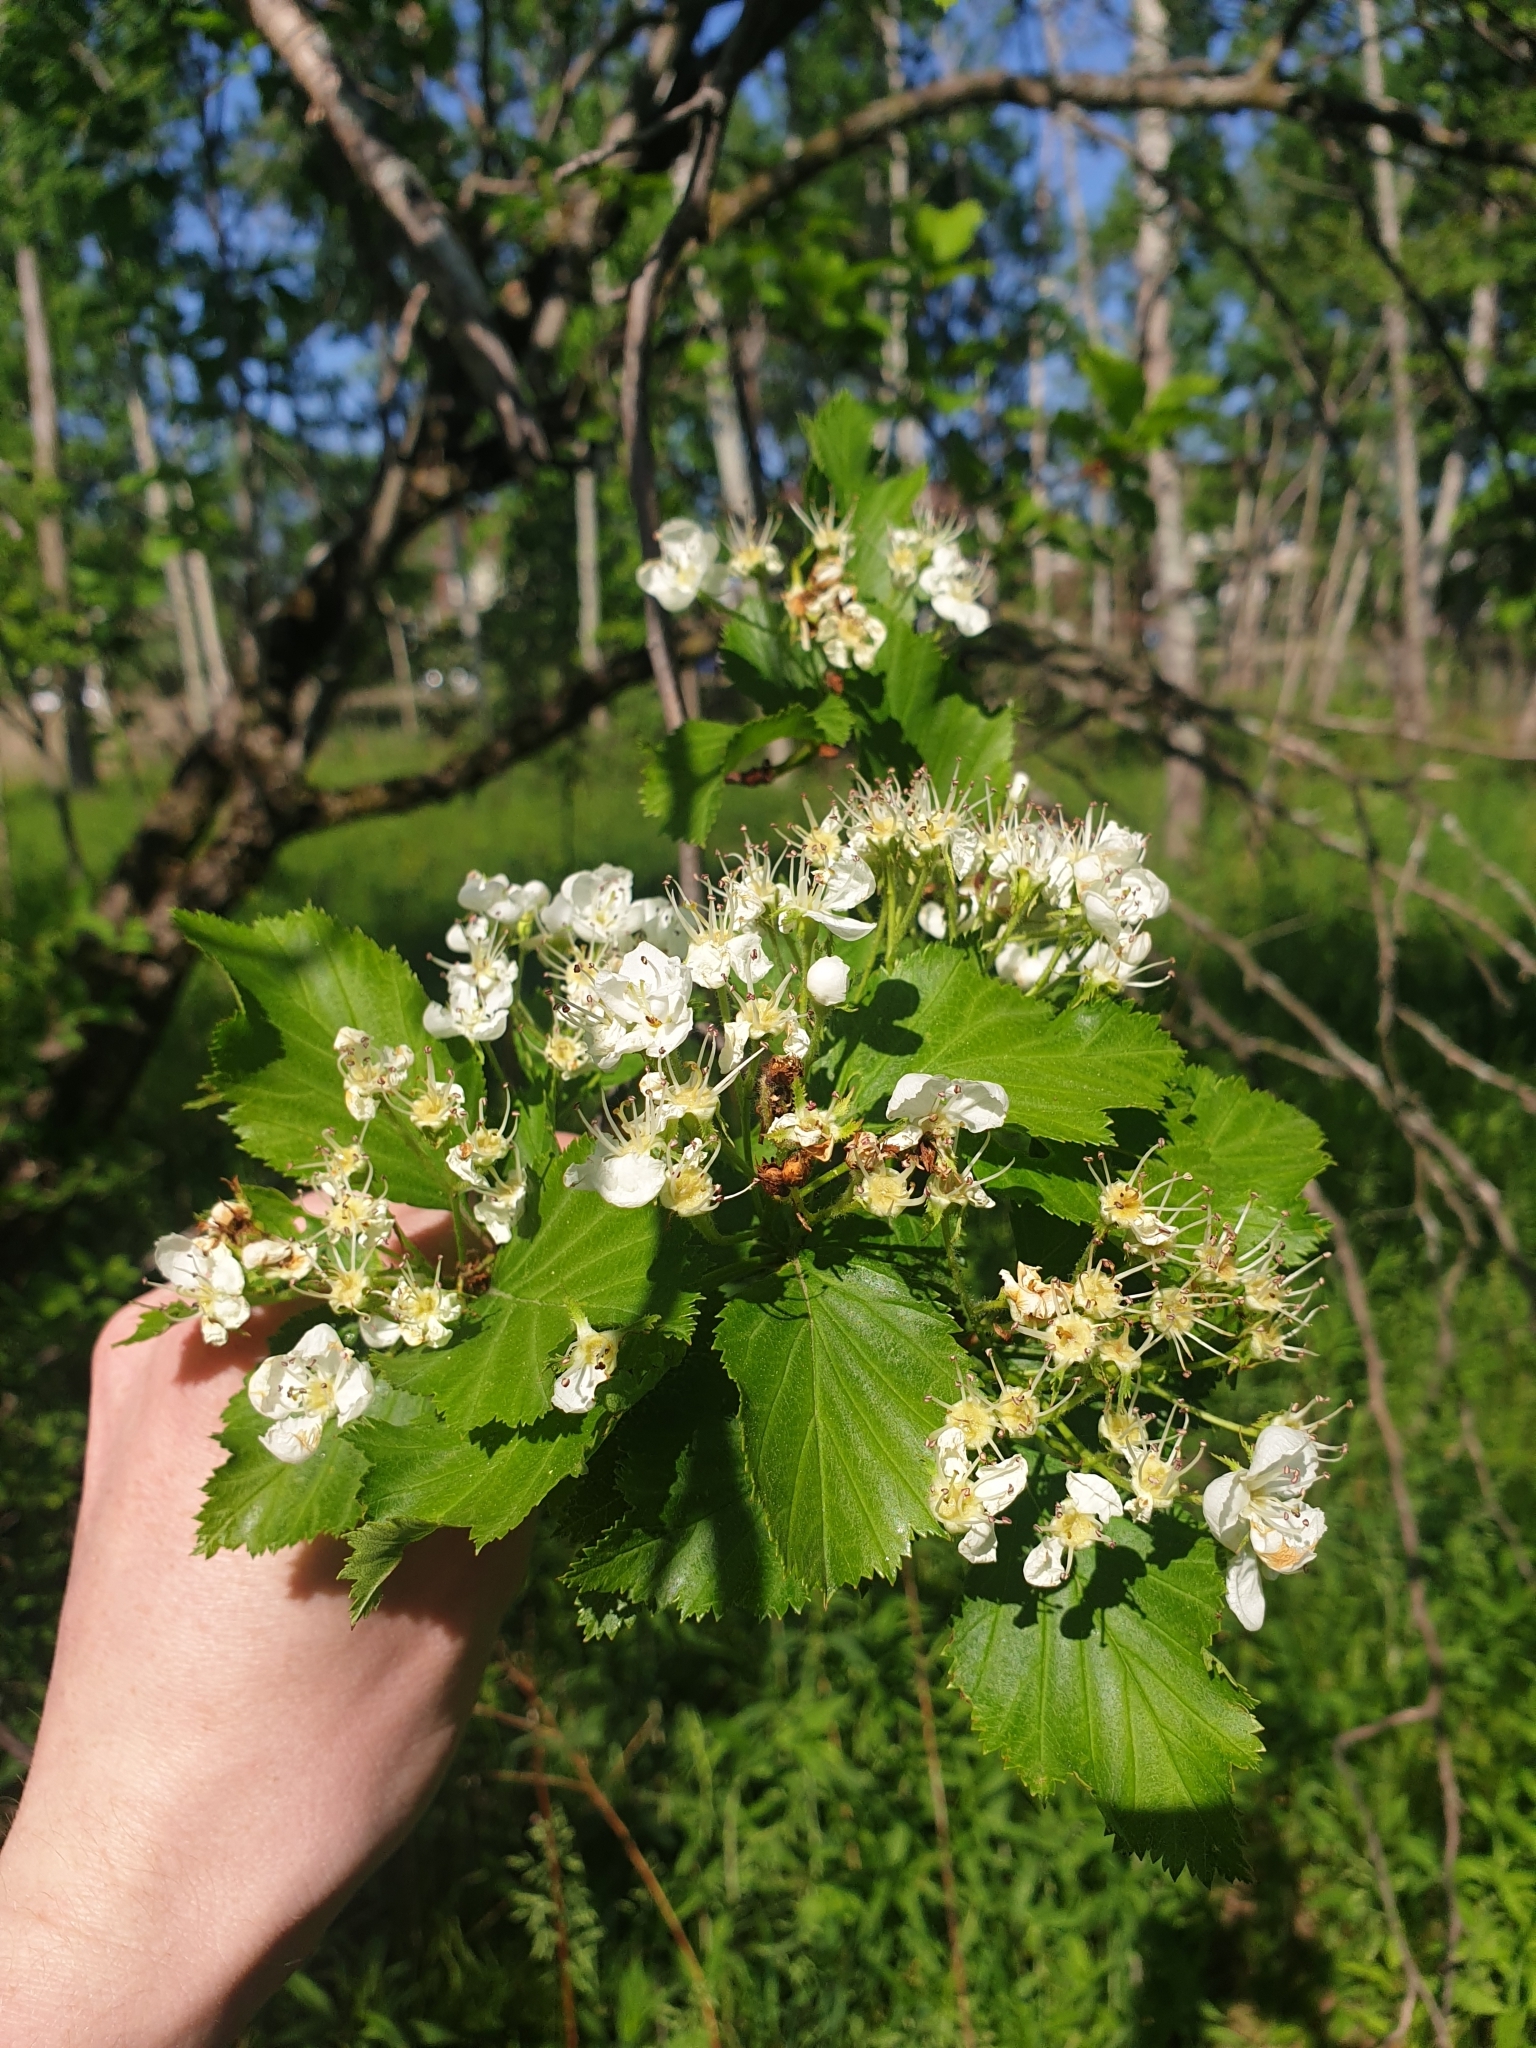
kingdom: Plantae
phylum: Tracheophyta
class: Magnoliopsida
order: Rosales
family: Rosaceae
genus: Crataegus
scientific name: Crataegus macracantha
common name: Large-thorn hawthorn
